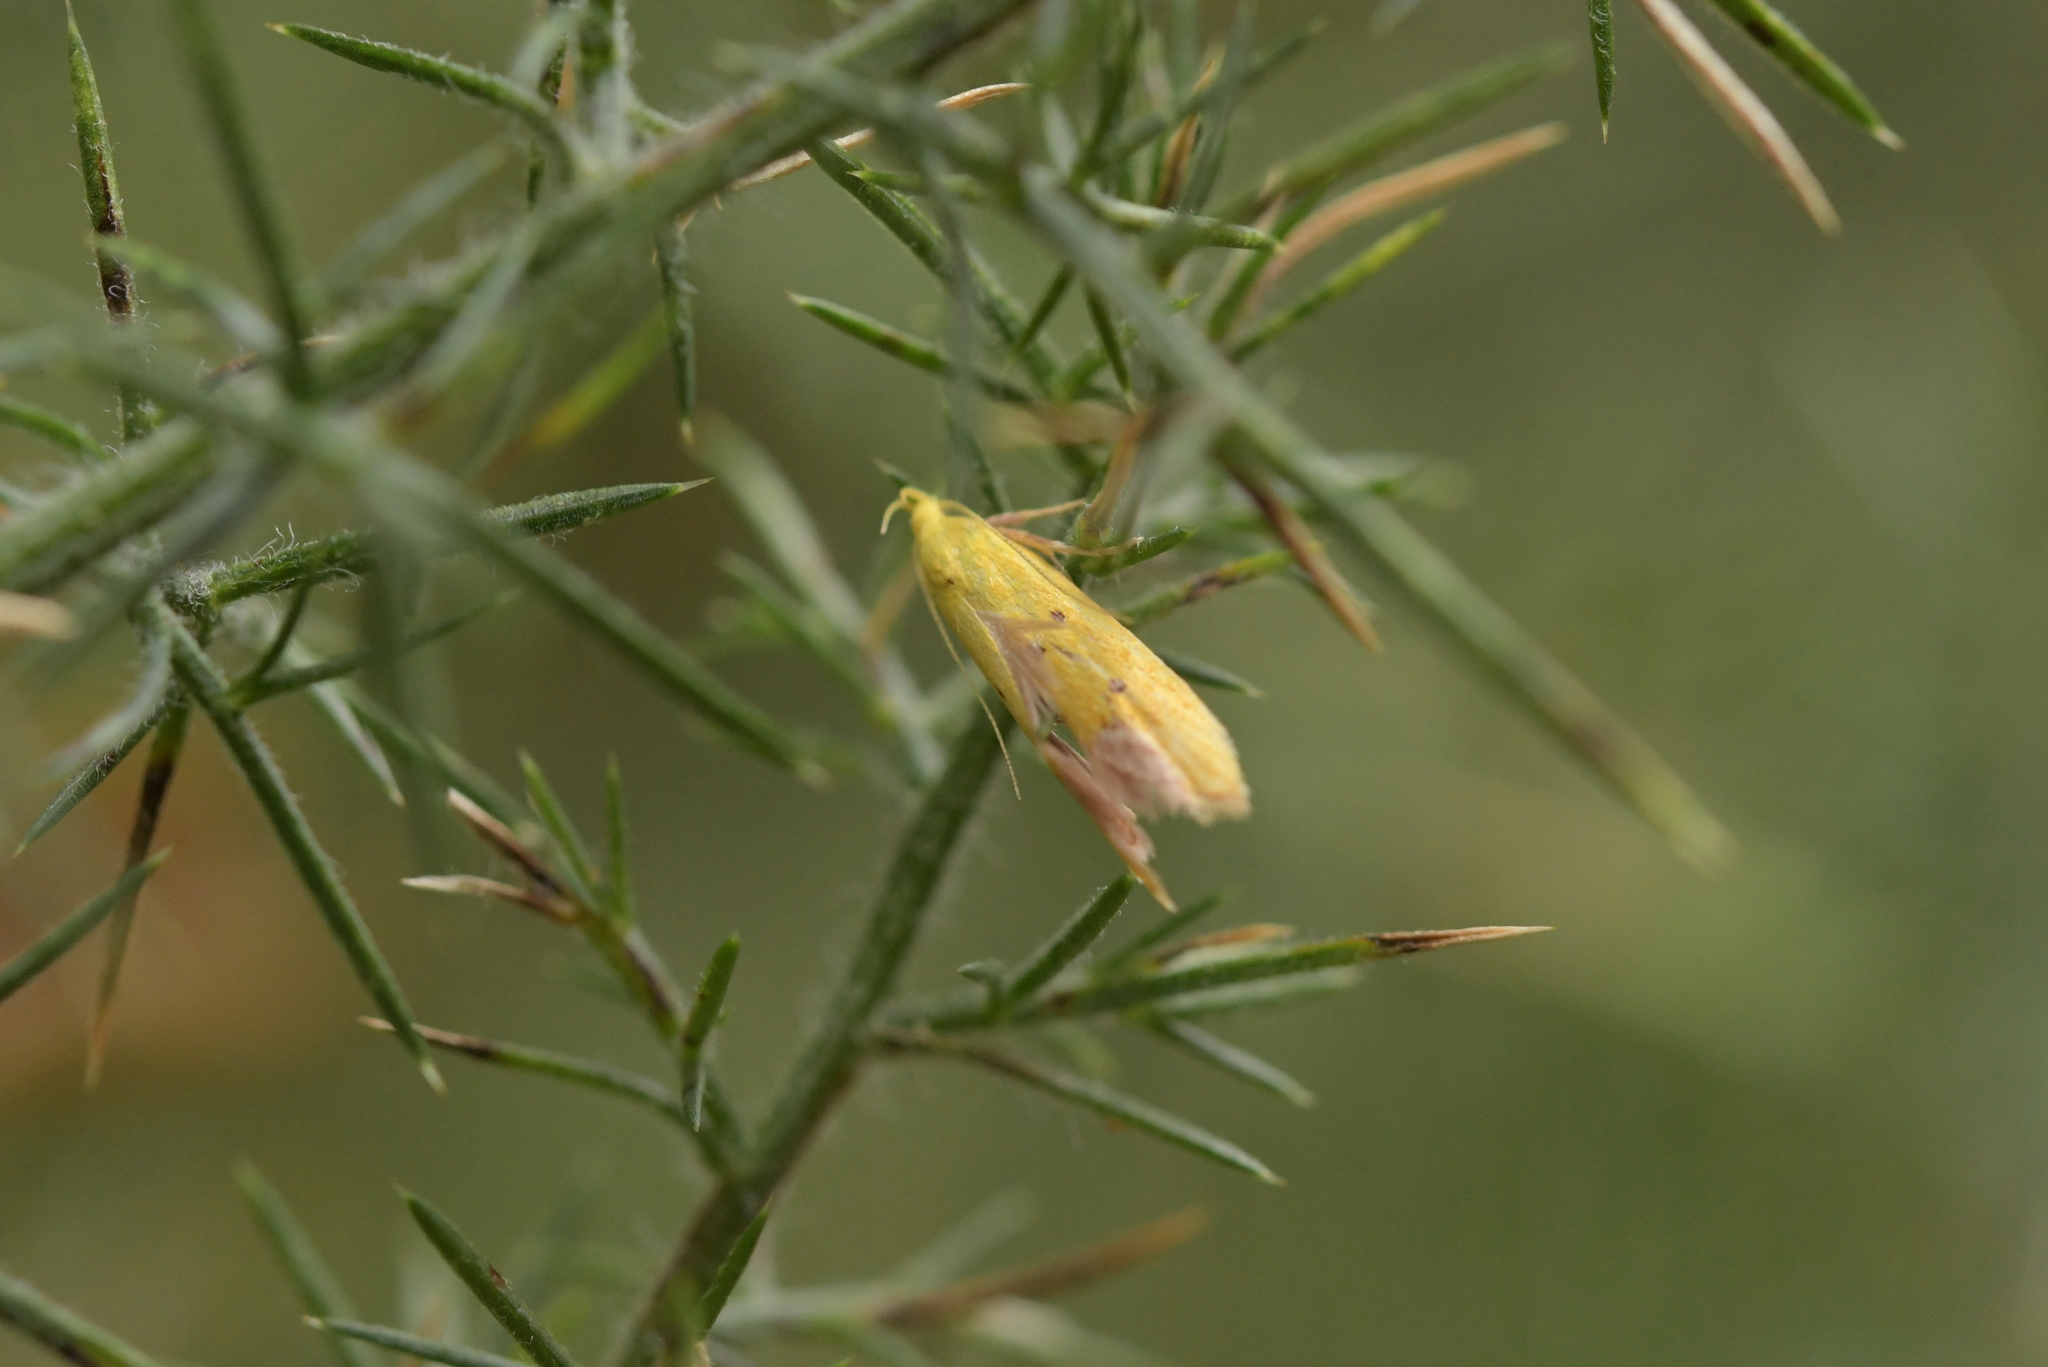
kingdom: Animalia
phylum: Arthropoda
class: Insecta
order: Lepidoptera
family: Oecophoridae
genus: Gymnobathra
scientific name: Gymnobathra flavidella
